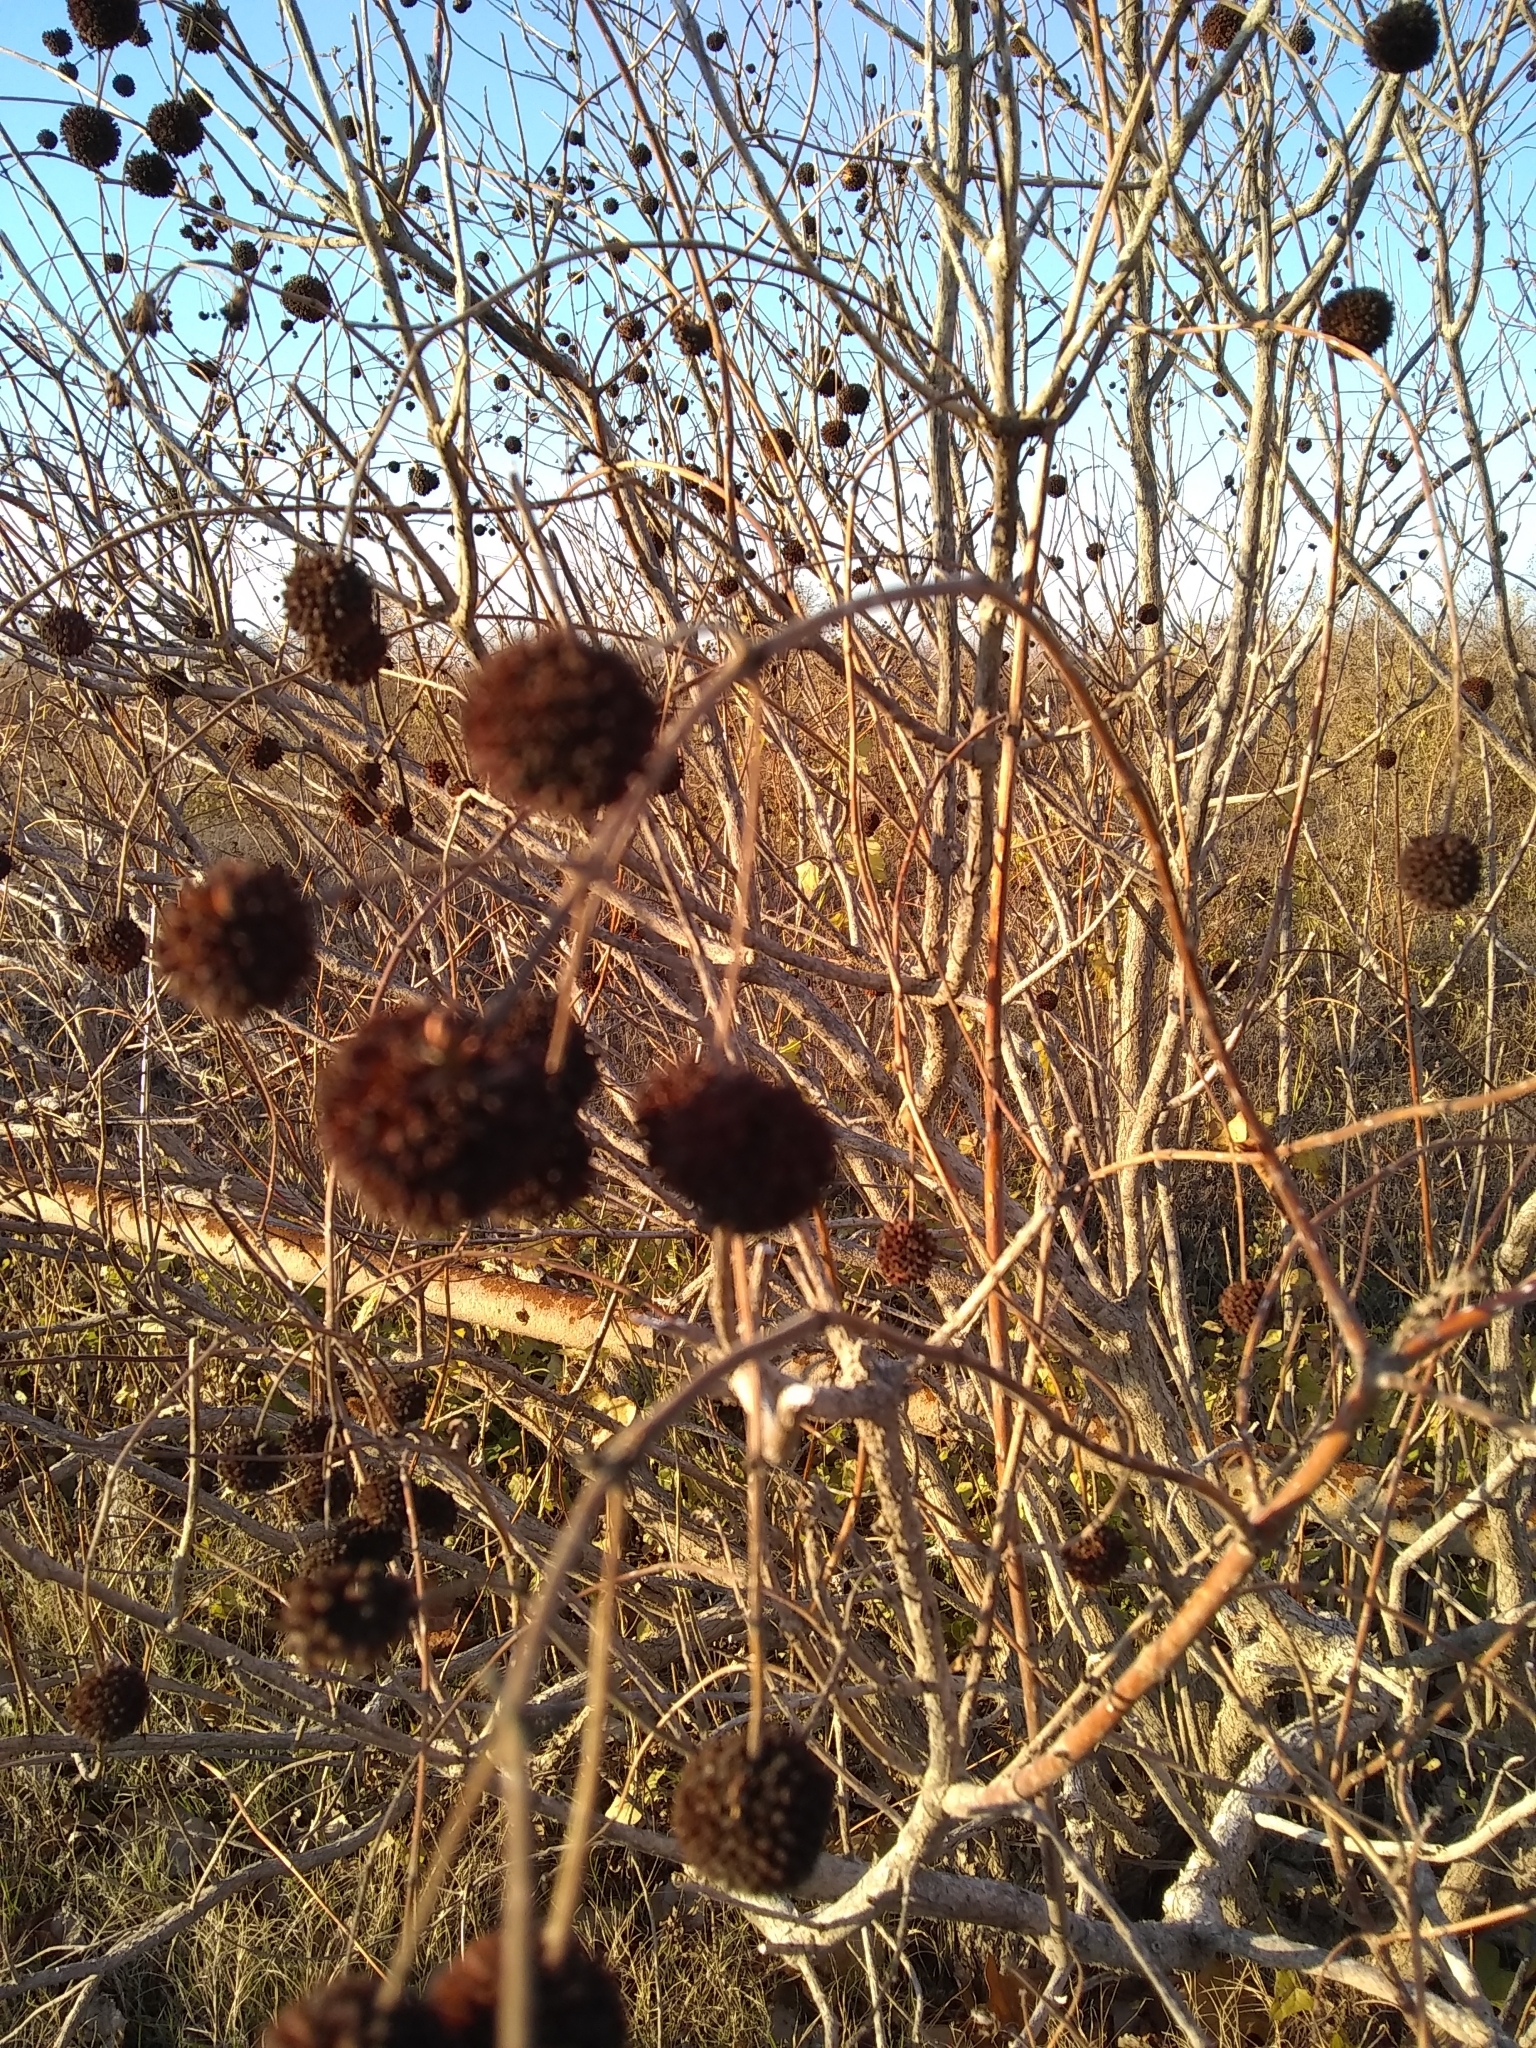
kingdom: Plantae
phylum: Tracheophyta
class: Magnoliopsida
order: Gentianales
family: Rubiaceae
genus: Cephalanthus
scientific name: Cephalanthus occidentalis
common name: Button-willow
